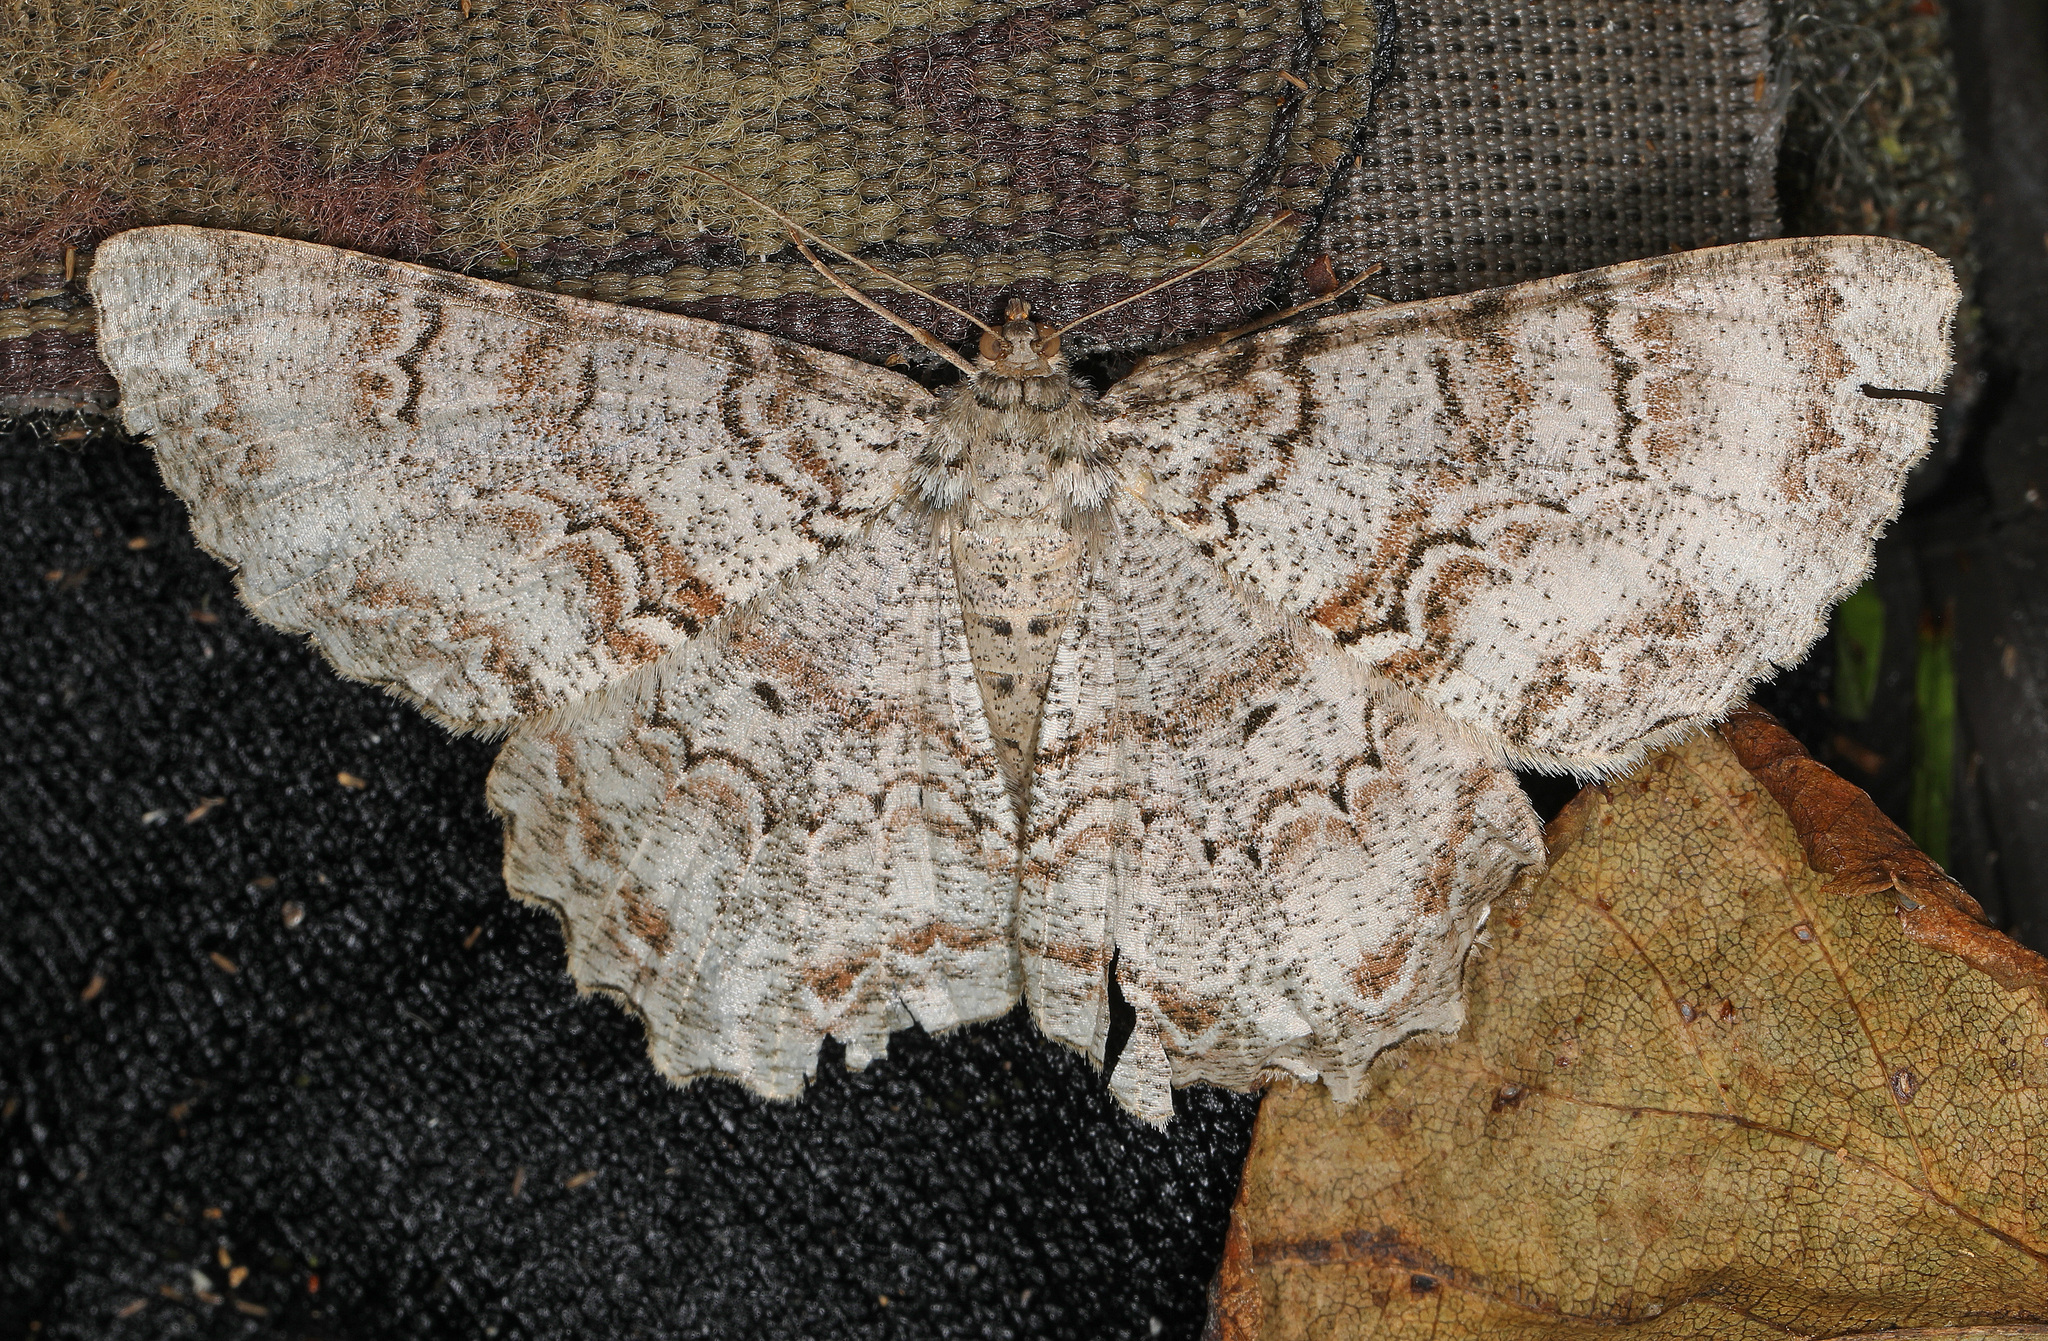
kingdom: Animalia
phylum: Arthropoda
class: Insecta
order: Lepidoptera
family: Geometridae
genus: Epimecis
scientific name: Epimecis hortaria
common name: Tulip-tree beauty
